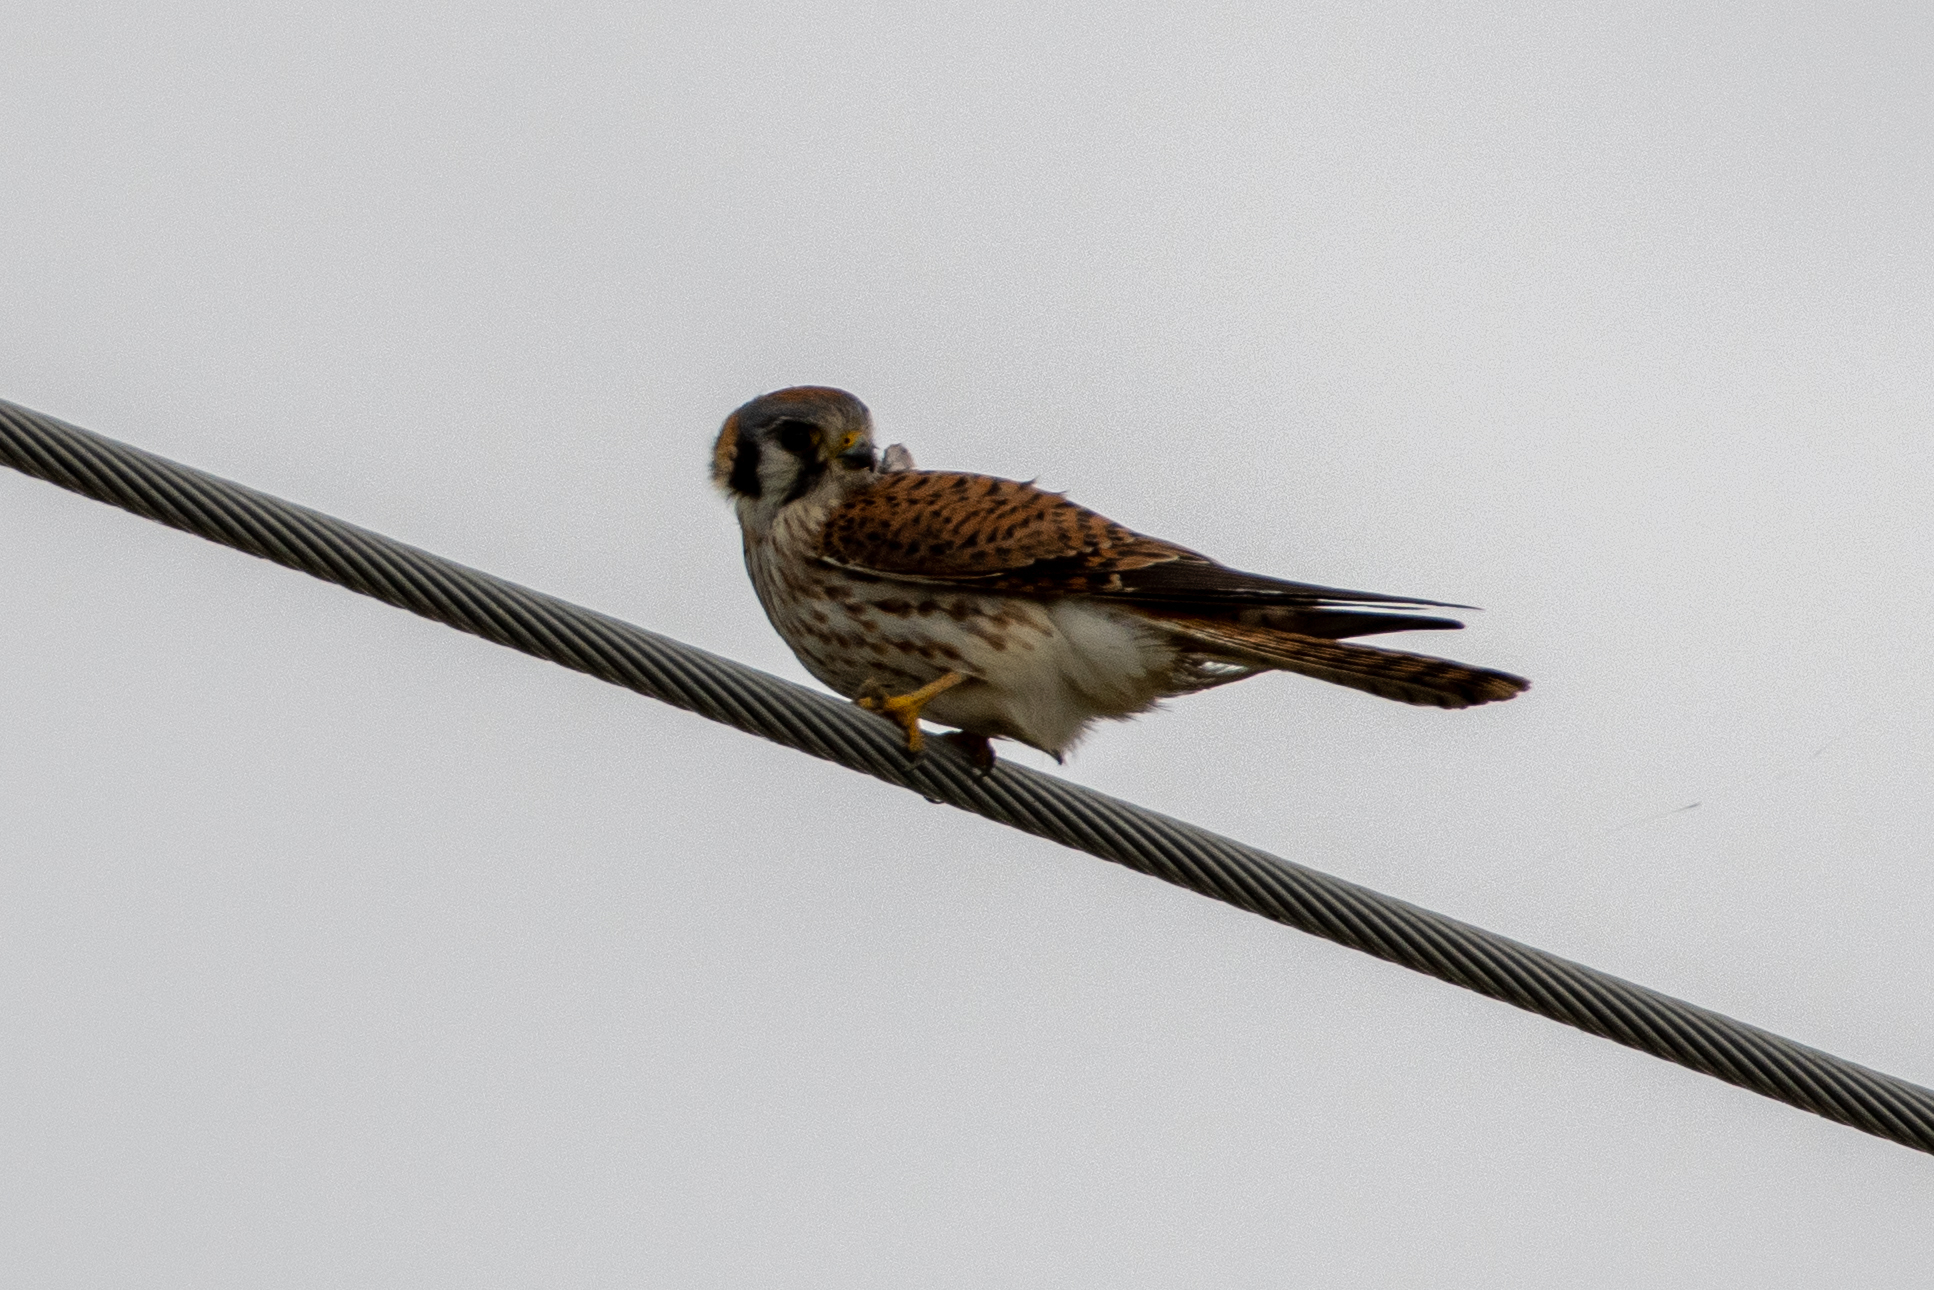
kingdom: Animalia
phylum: Chordata
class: Aves
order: Falconiformes
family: Falconidae
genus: Falco
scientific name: Falco sparverius
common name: American kestrel
